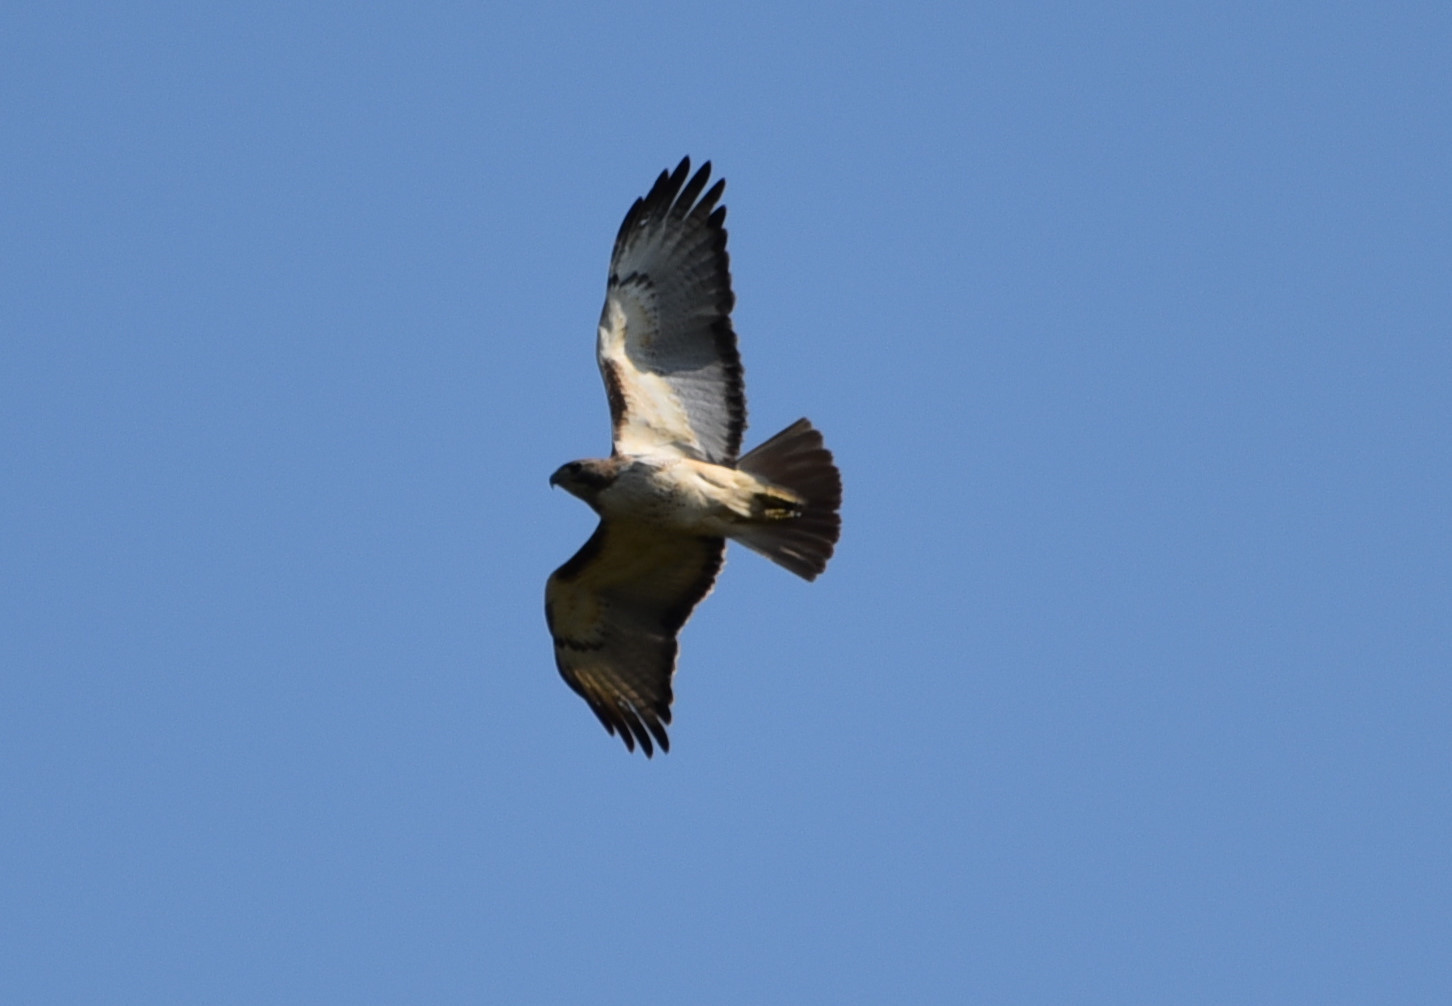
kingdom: Animalia
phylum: Chordata
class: Aves
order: Accipitriformes
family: Accipitridae
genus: Buteo
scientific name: Buteo jamaicensis
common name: Red-tailed hawk
